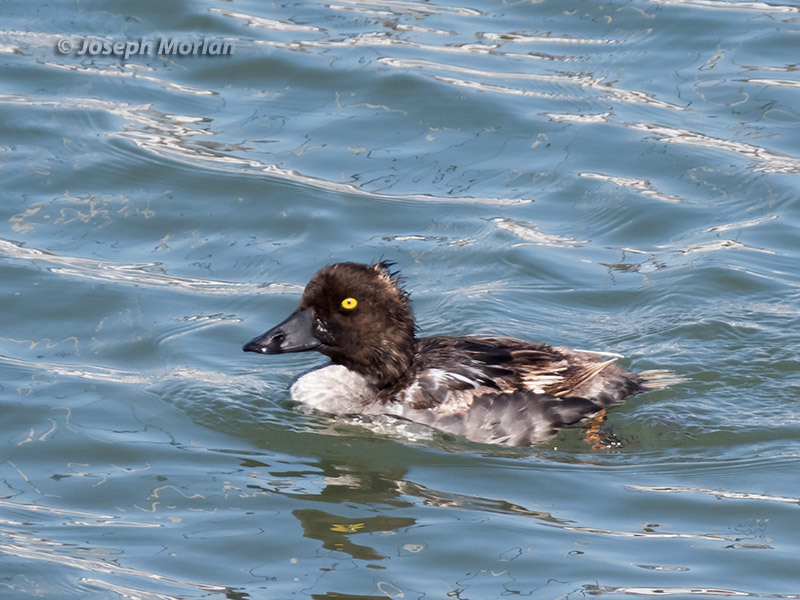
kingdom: Animalia
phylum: Chordata
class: Aves
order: Anseriformes
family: Anatidae
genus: Bucephala
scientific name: Bucephala clangula
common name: Common goldeneye
